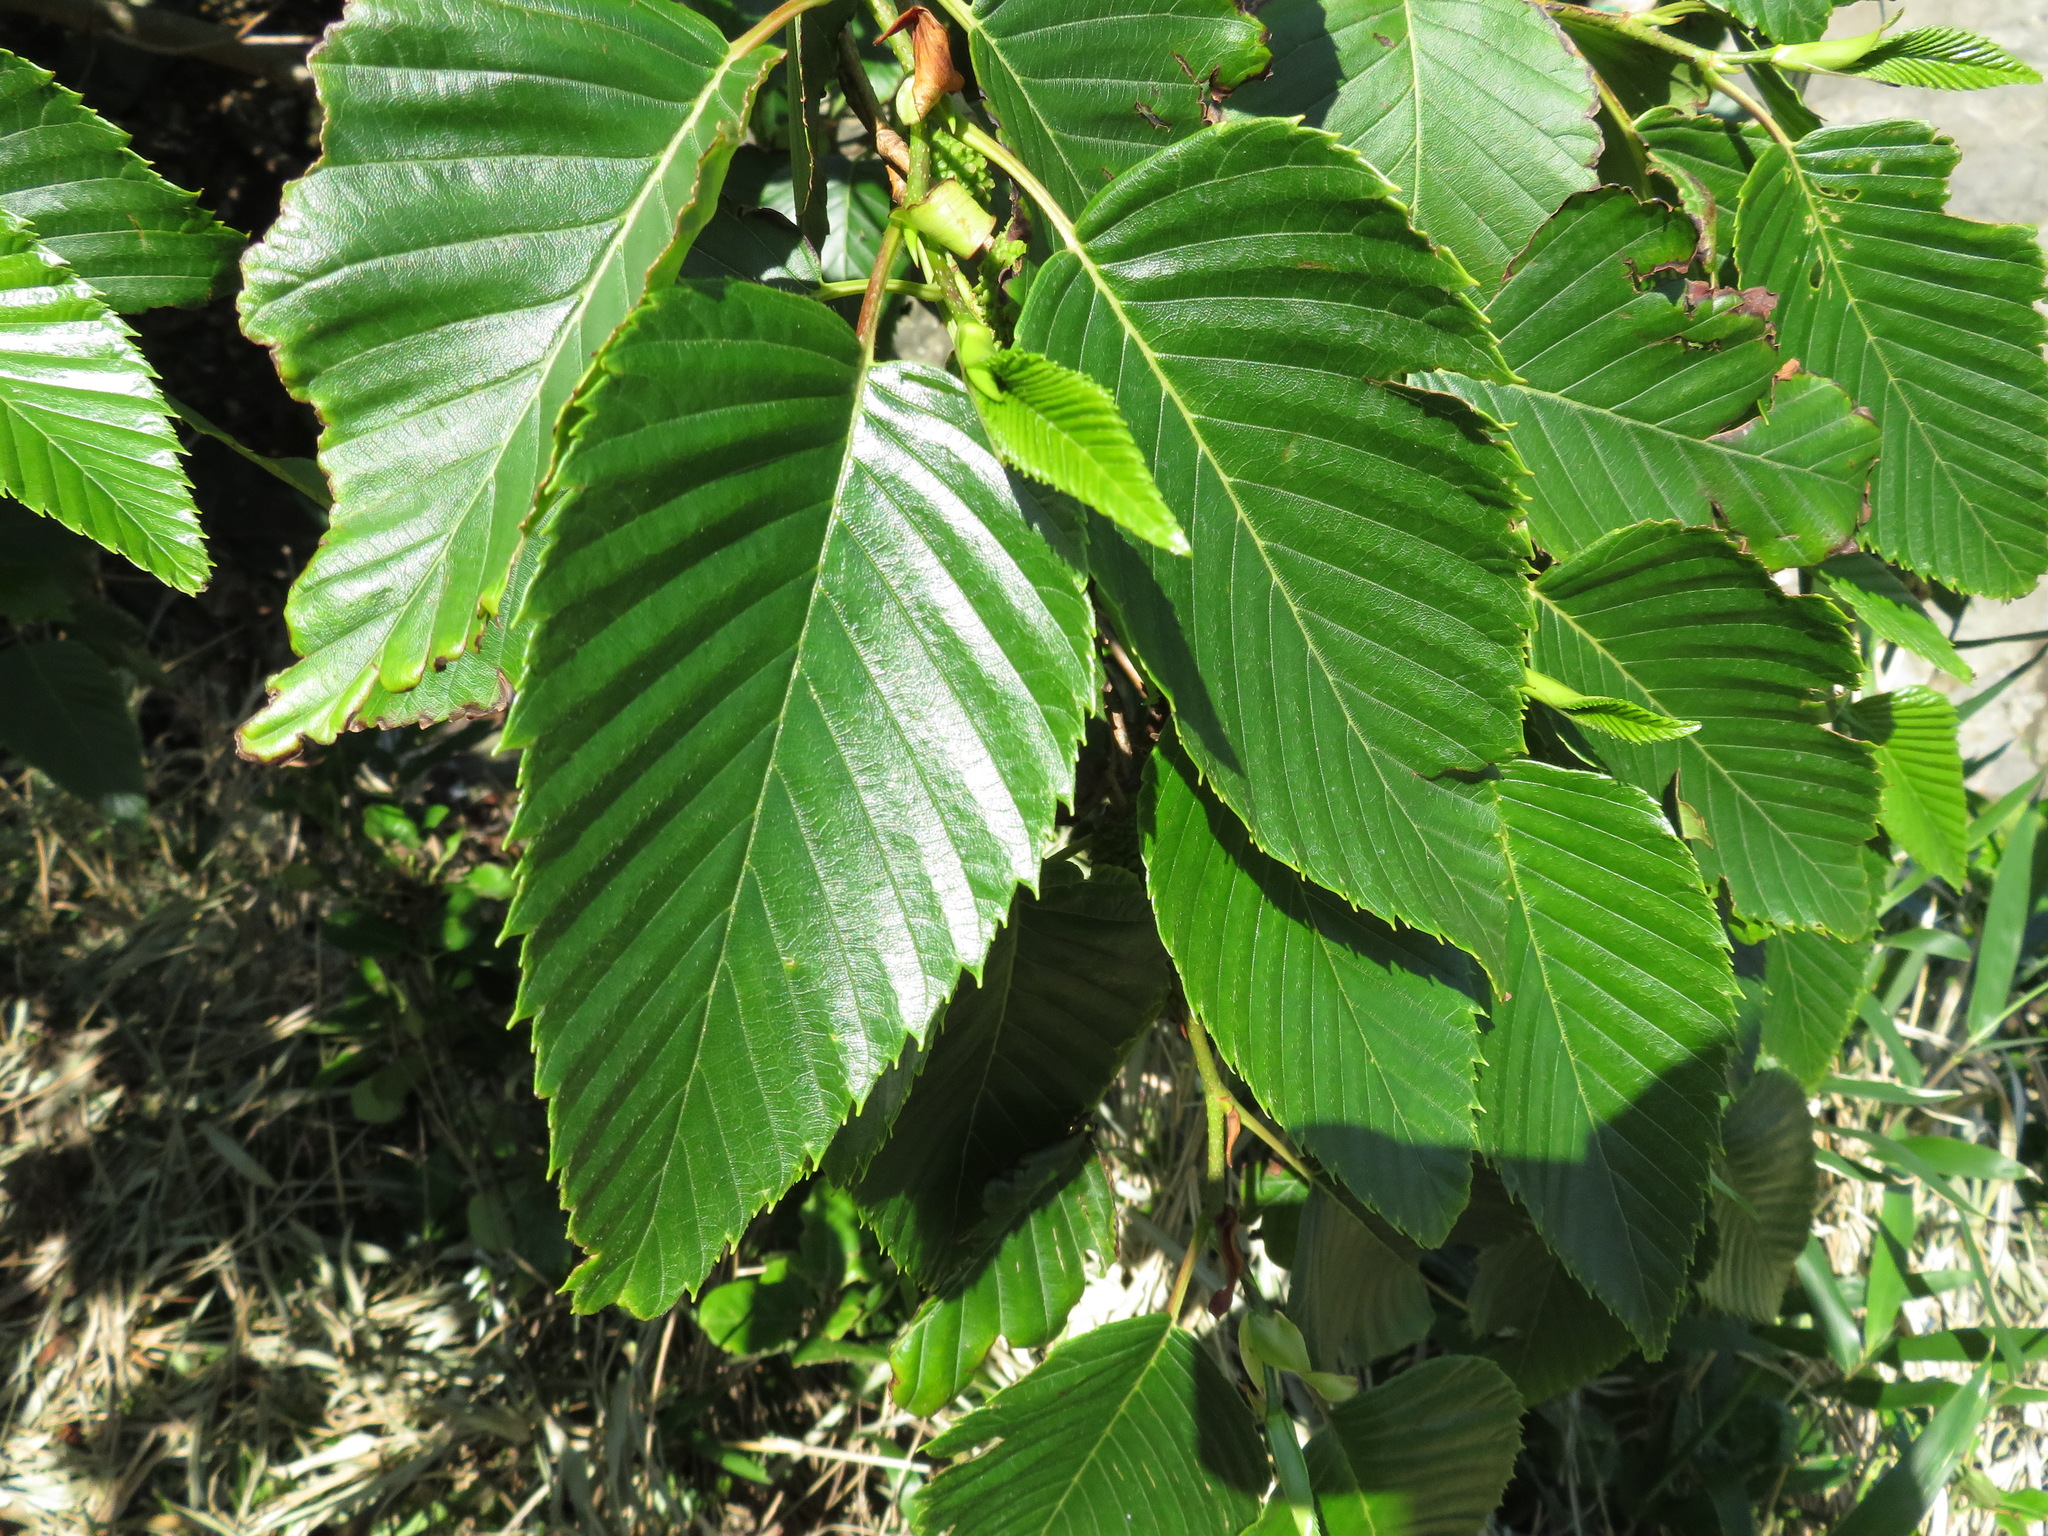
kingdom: Plantae
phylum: Tracheophyta
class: Magnoliopsida
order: Fagales
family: Betulaceae
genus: Alnus
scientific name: Alnus sieboldiana
